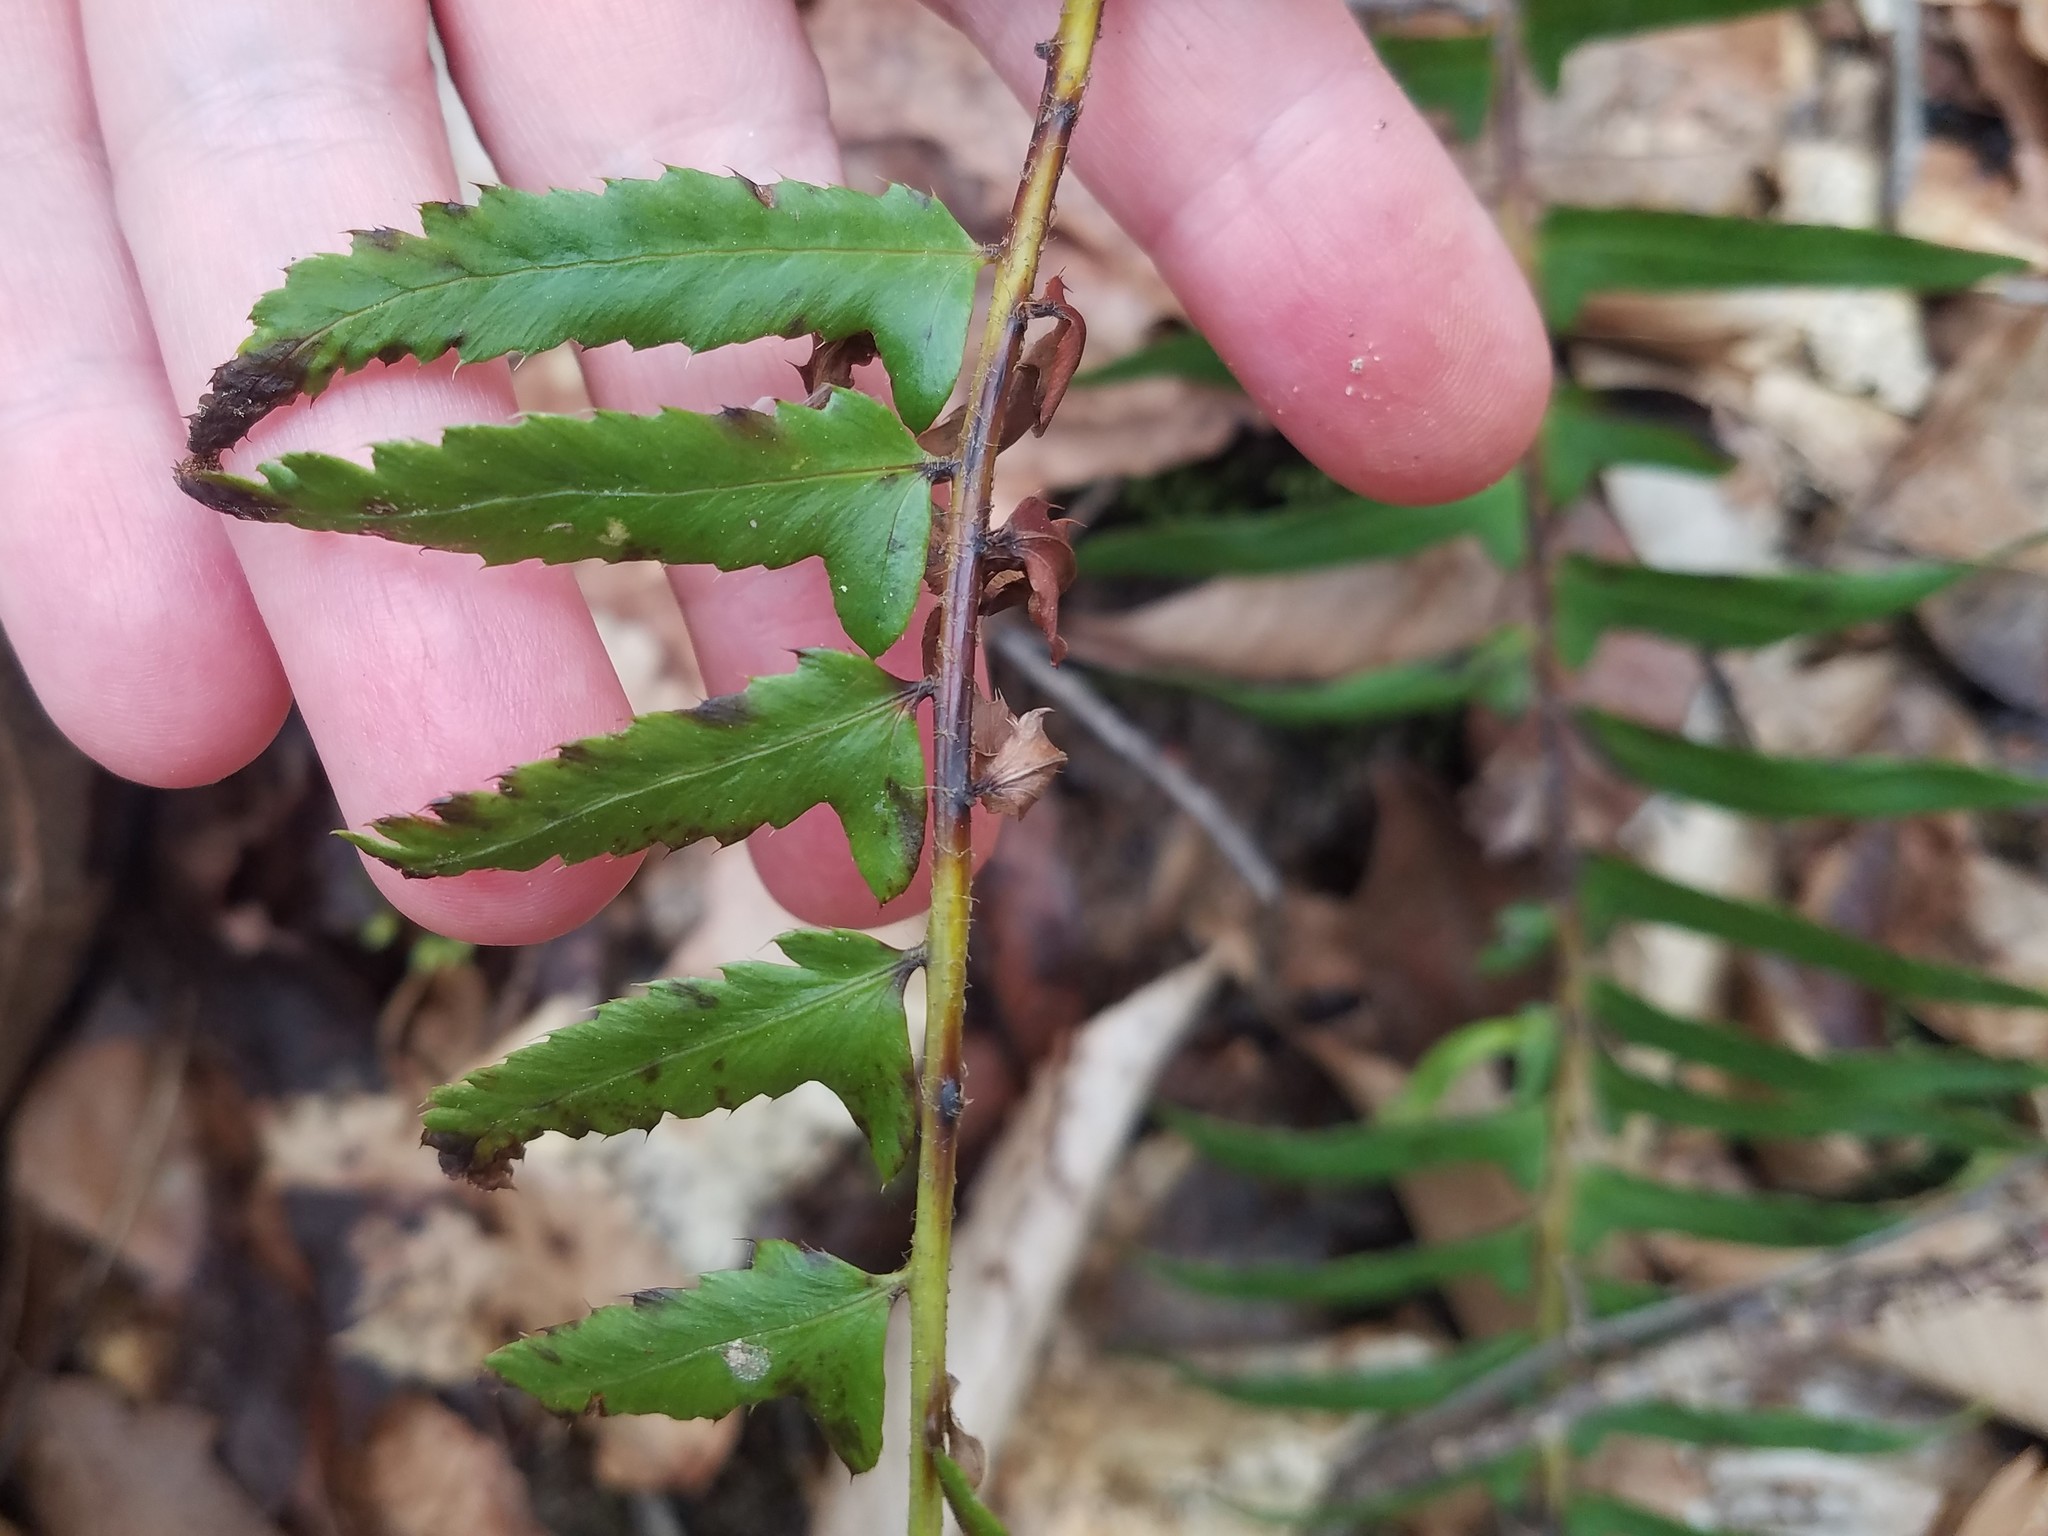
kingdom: Plantae
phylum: Tracheophyta
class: Polypodiopsida
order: Polypodiales
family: Dryopteridaceae
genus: Polystichum
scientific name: Polystichum acrostichoides
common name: Christmas fern
